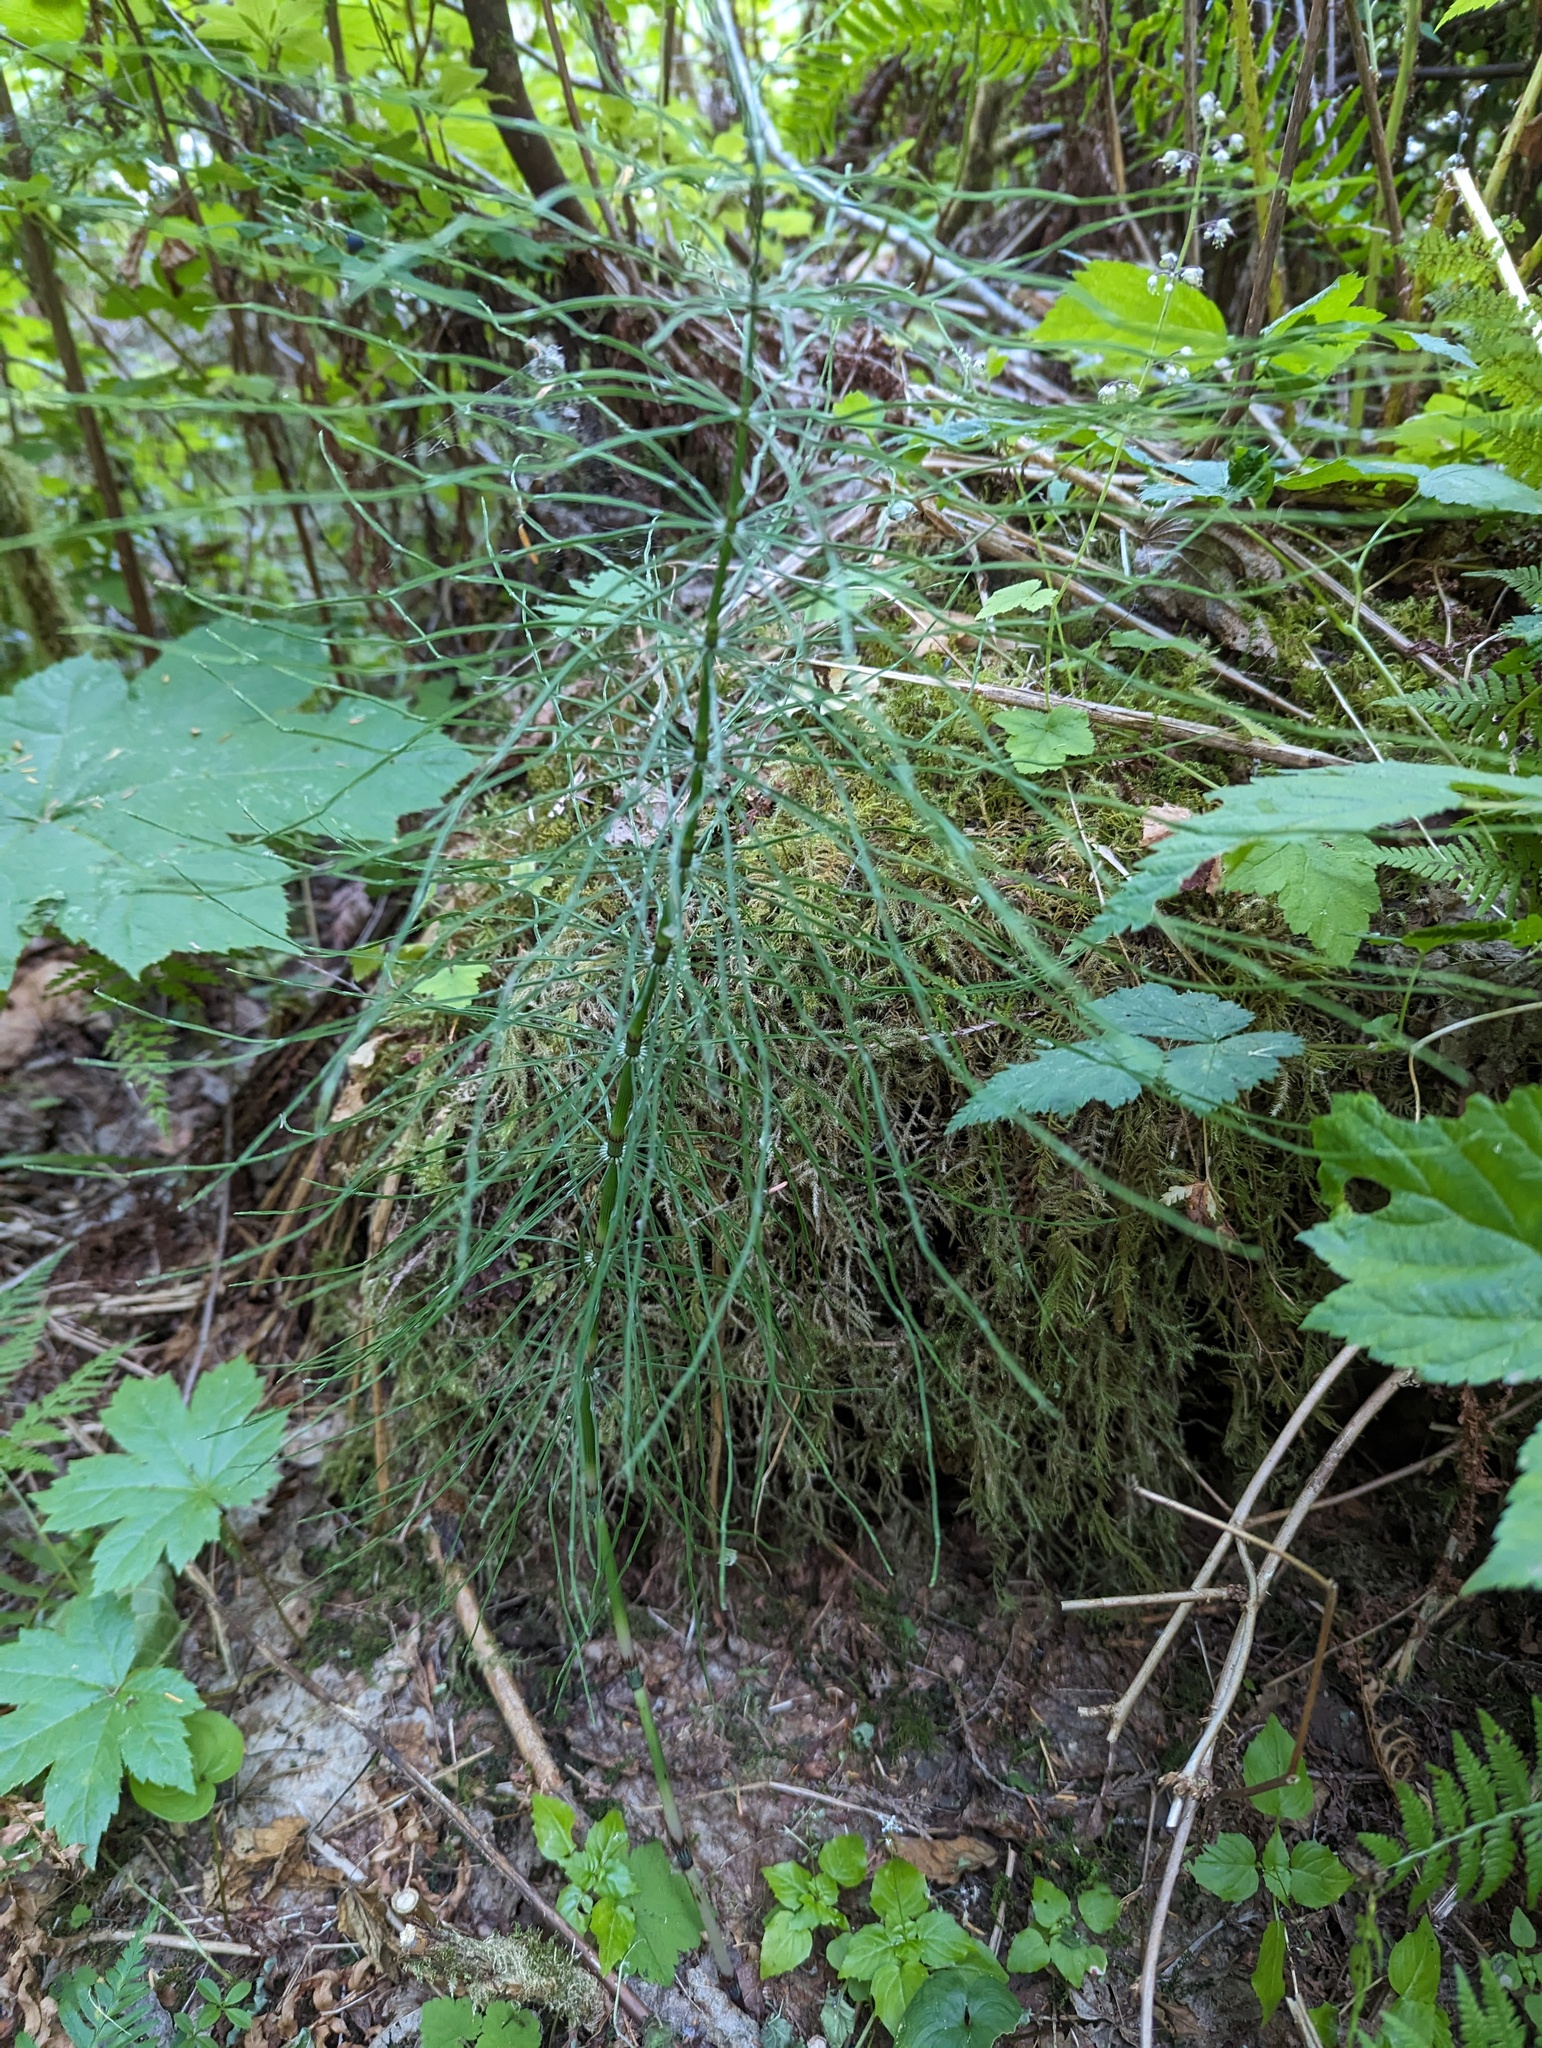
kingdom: Plantae
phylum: Tracheophyta
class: Polypodiopsida
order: Equisetales
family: Equisetaceae
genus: Equisetum
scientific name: Equisetum arvense
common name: Field horsetail
